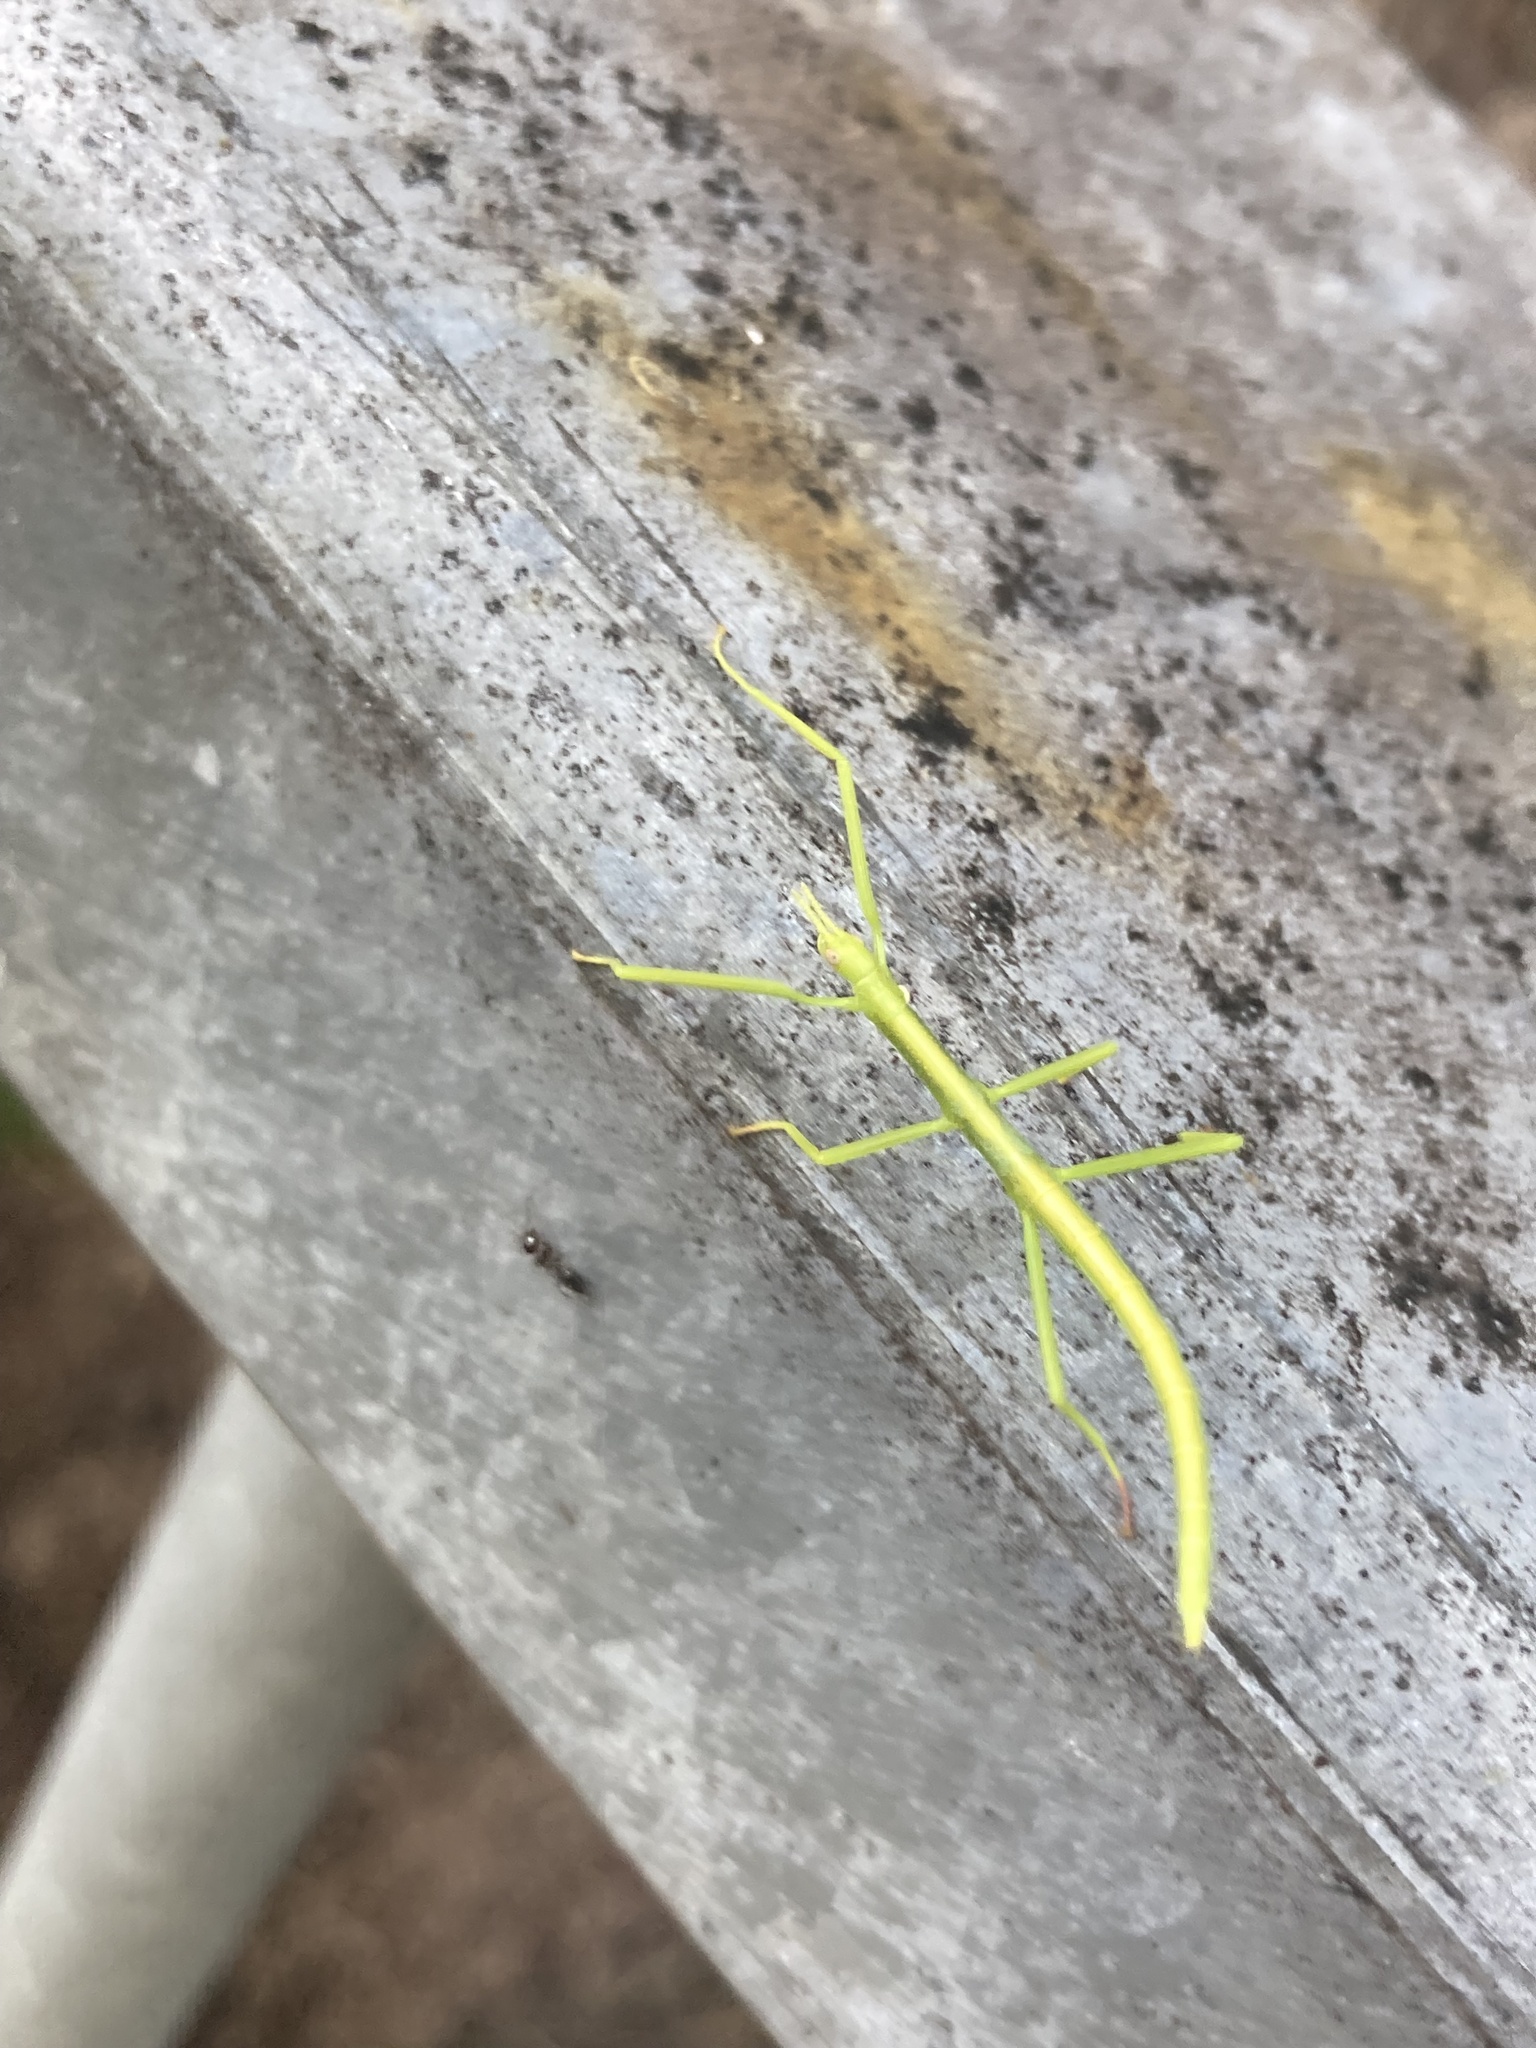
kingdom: Animalia
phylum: Arthropoda
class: Insecta
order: Phasmida
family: Phasmatidae
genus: Didymuria
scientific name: Didymuria violescens
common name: Spur-legged stick-insect
